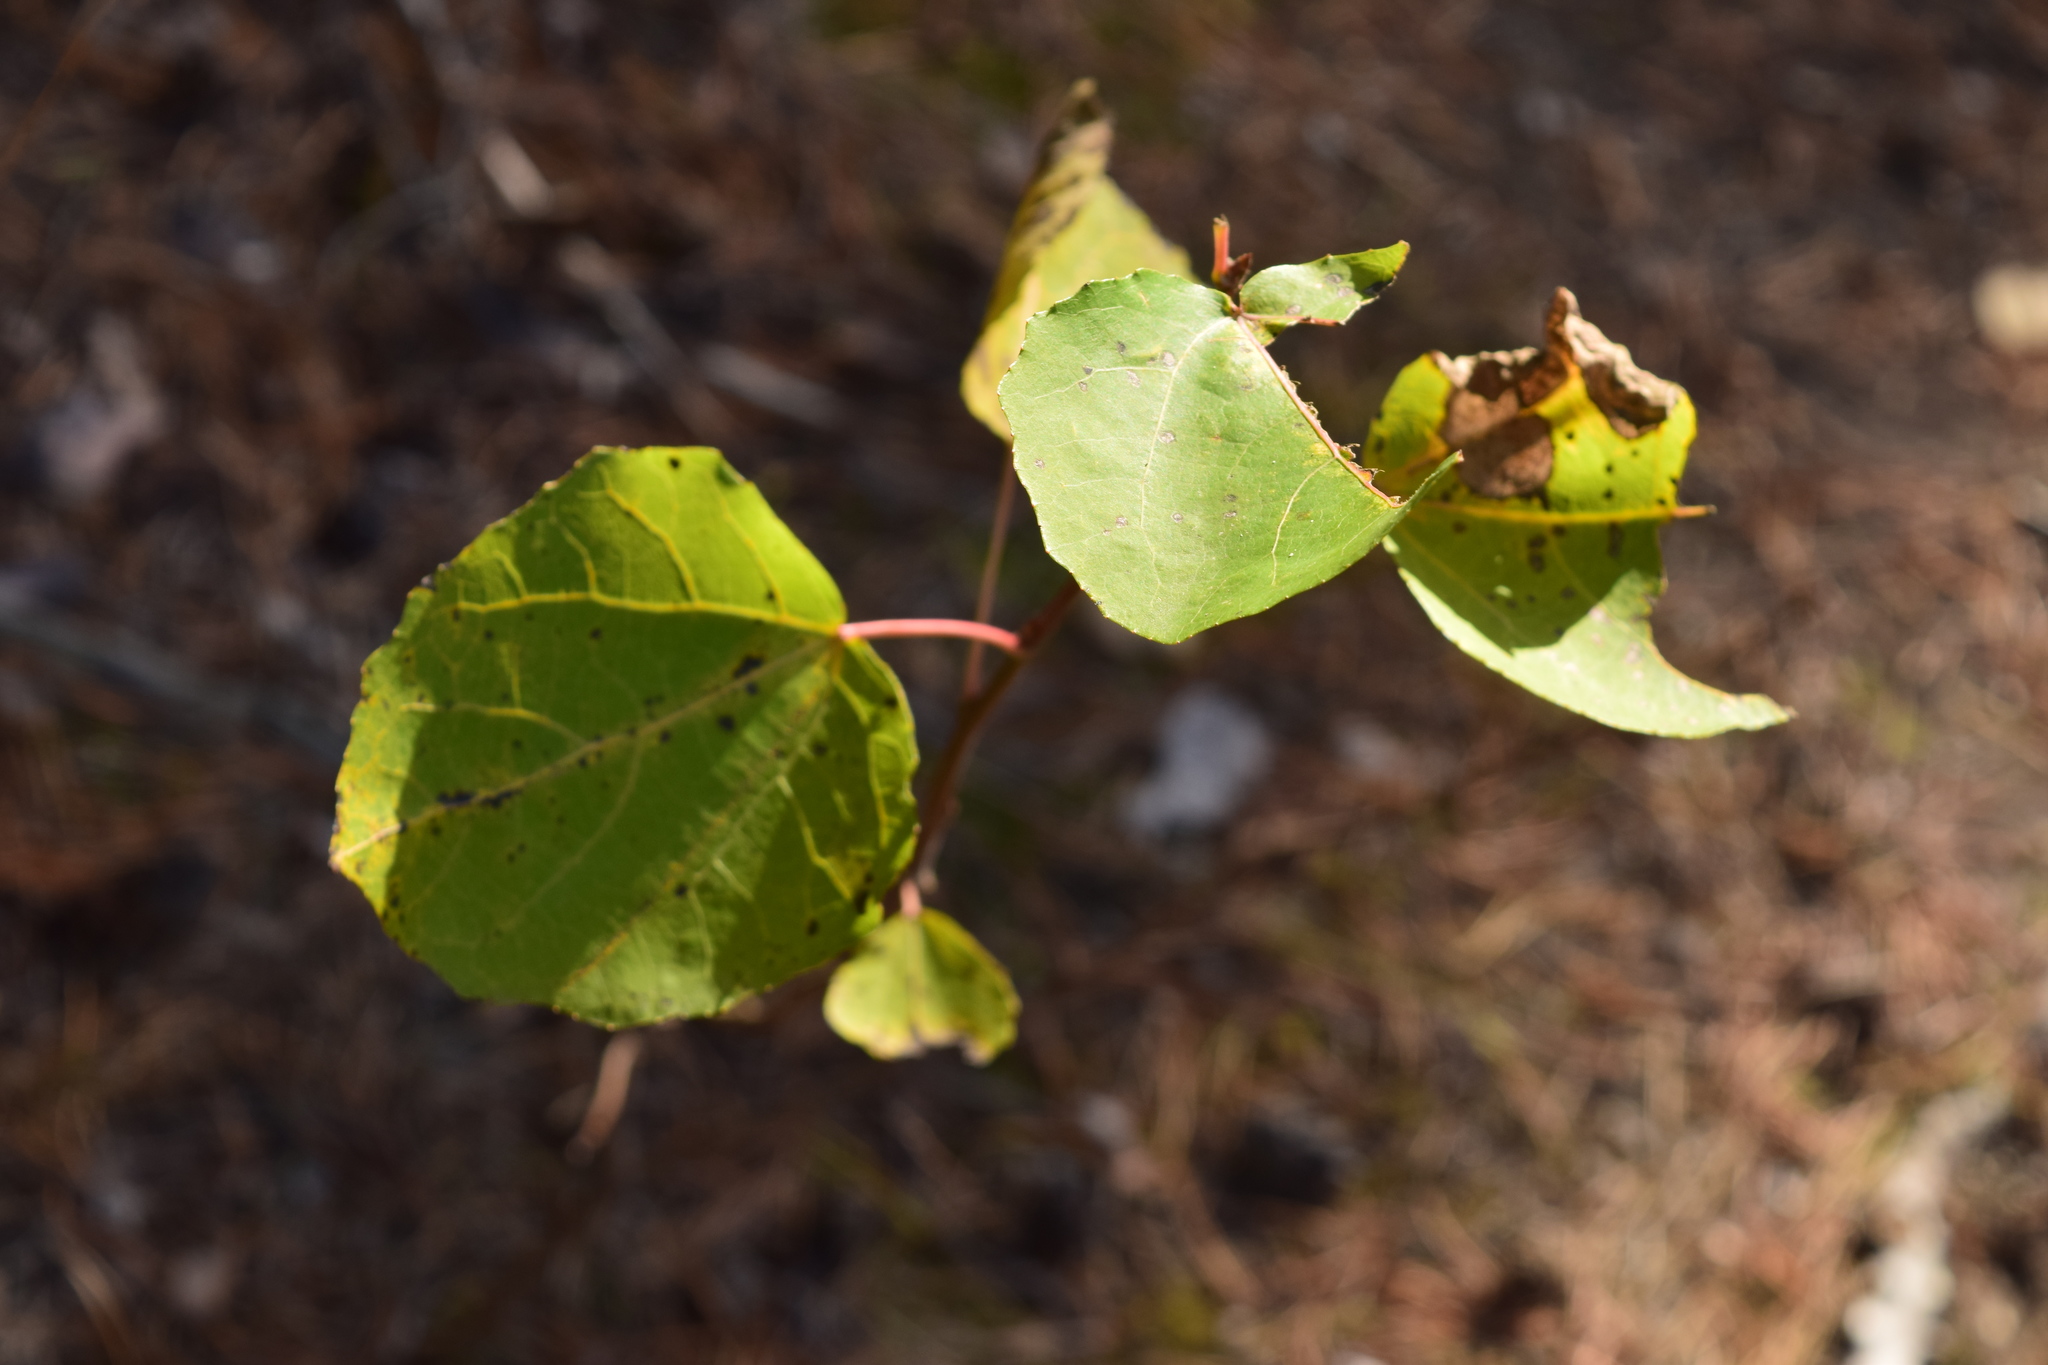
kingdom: Plantae
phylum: Tracheophyta
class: Magnoliopsida
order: Malpighiales
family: Salicaceae
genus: Populus
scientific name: Populus tremula
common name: European aspen
